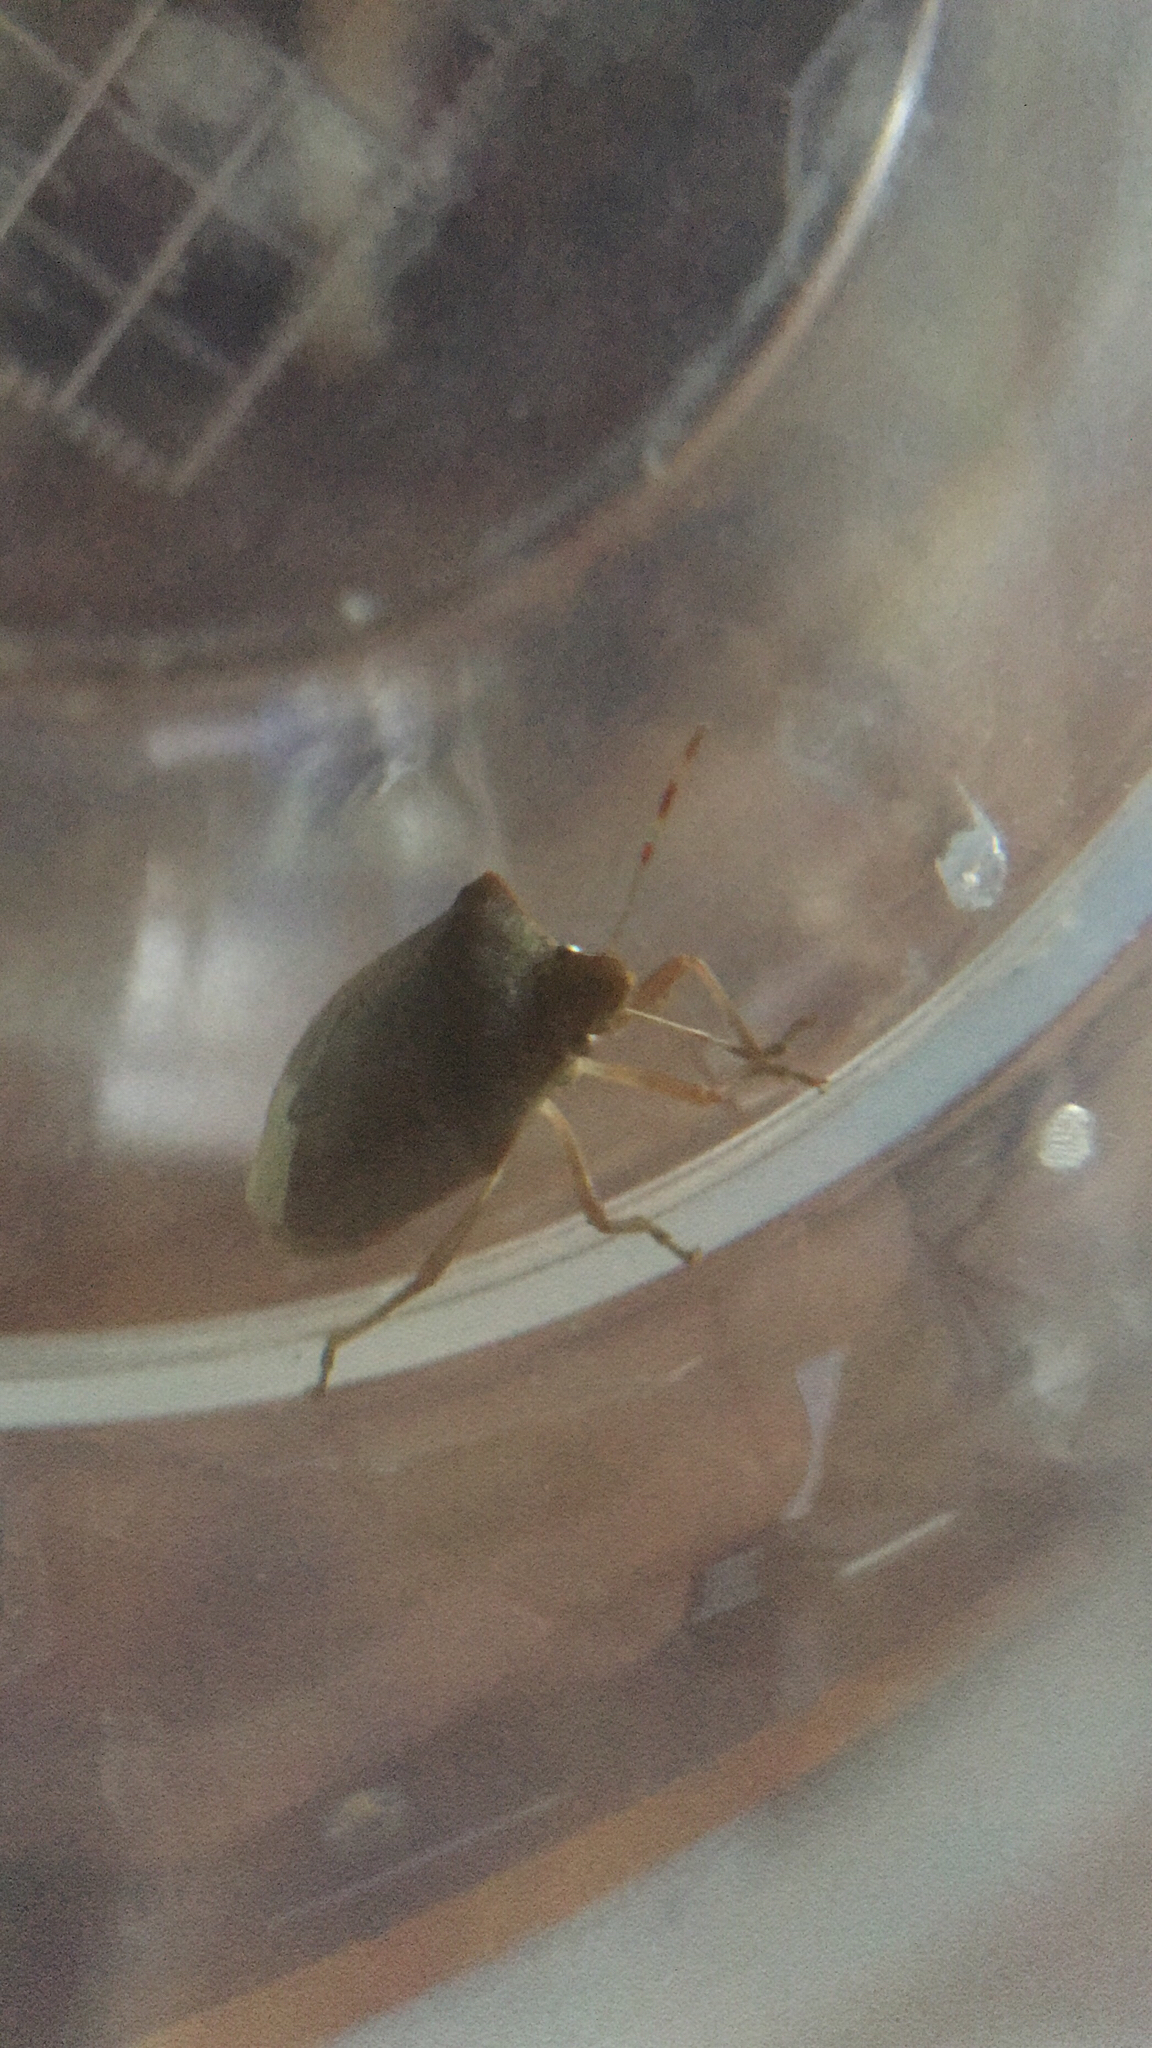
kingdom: Animalia
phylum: Arthropoda
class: Insecta
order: Hemiptera
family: Pentatomidae
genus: Nezara
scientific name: Nezara viridula
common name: Southern green stink bug
